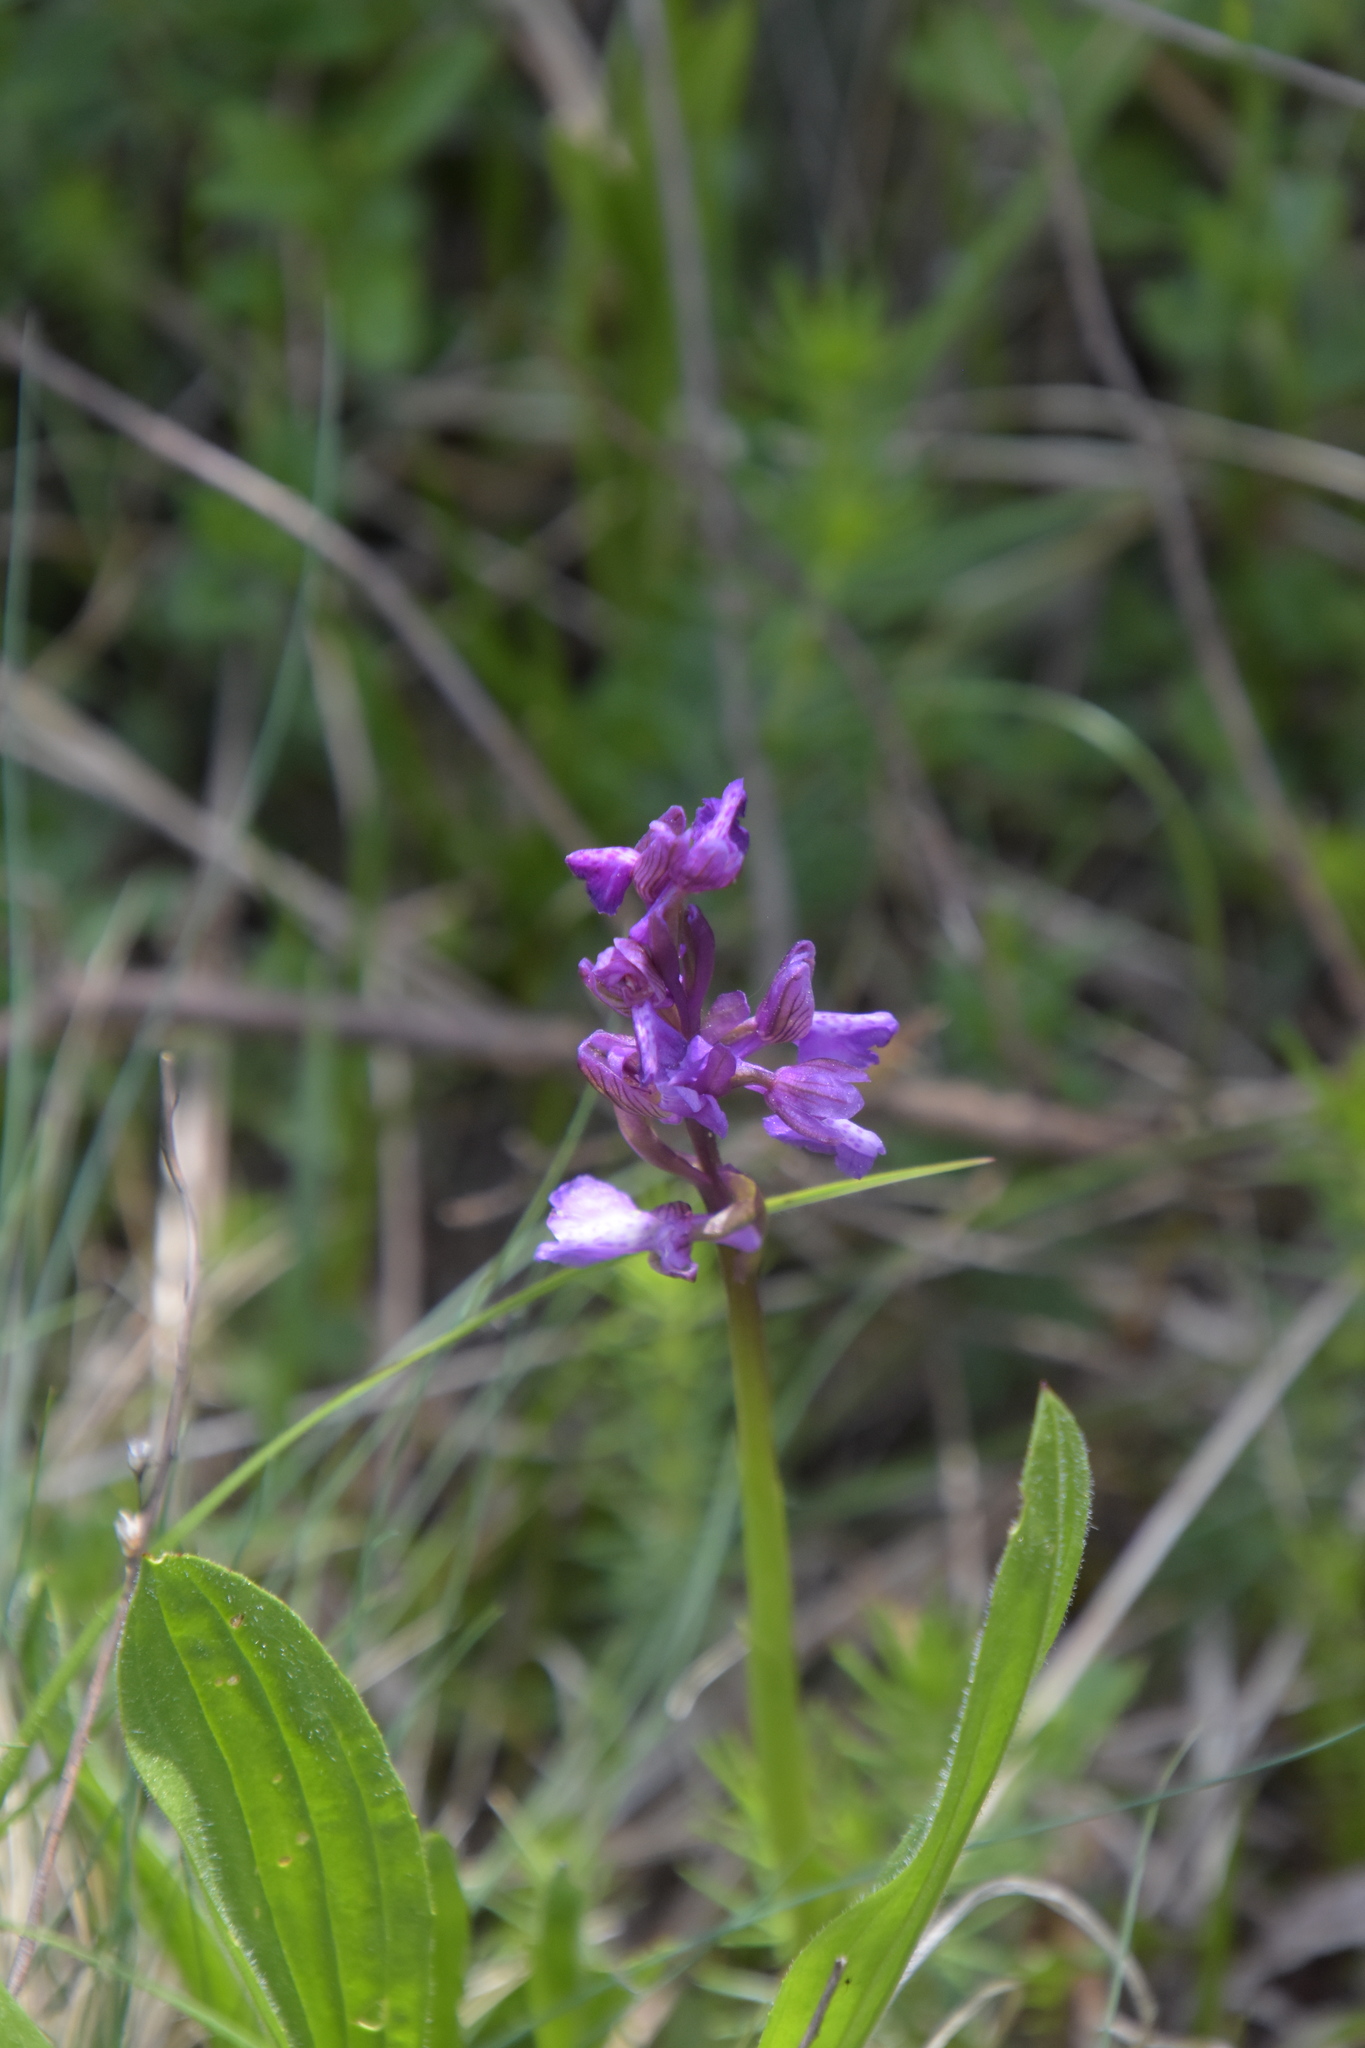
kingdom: Plantae
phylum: Tracheophyta
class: Liliopsida
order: Asparagales
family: Orchidaceae
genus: Anacamptis
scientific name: Anacamptis morio
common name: Green-winged orchid
